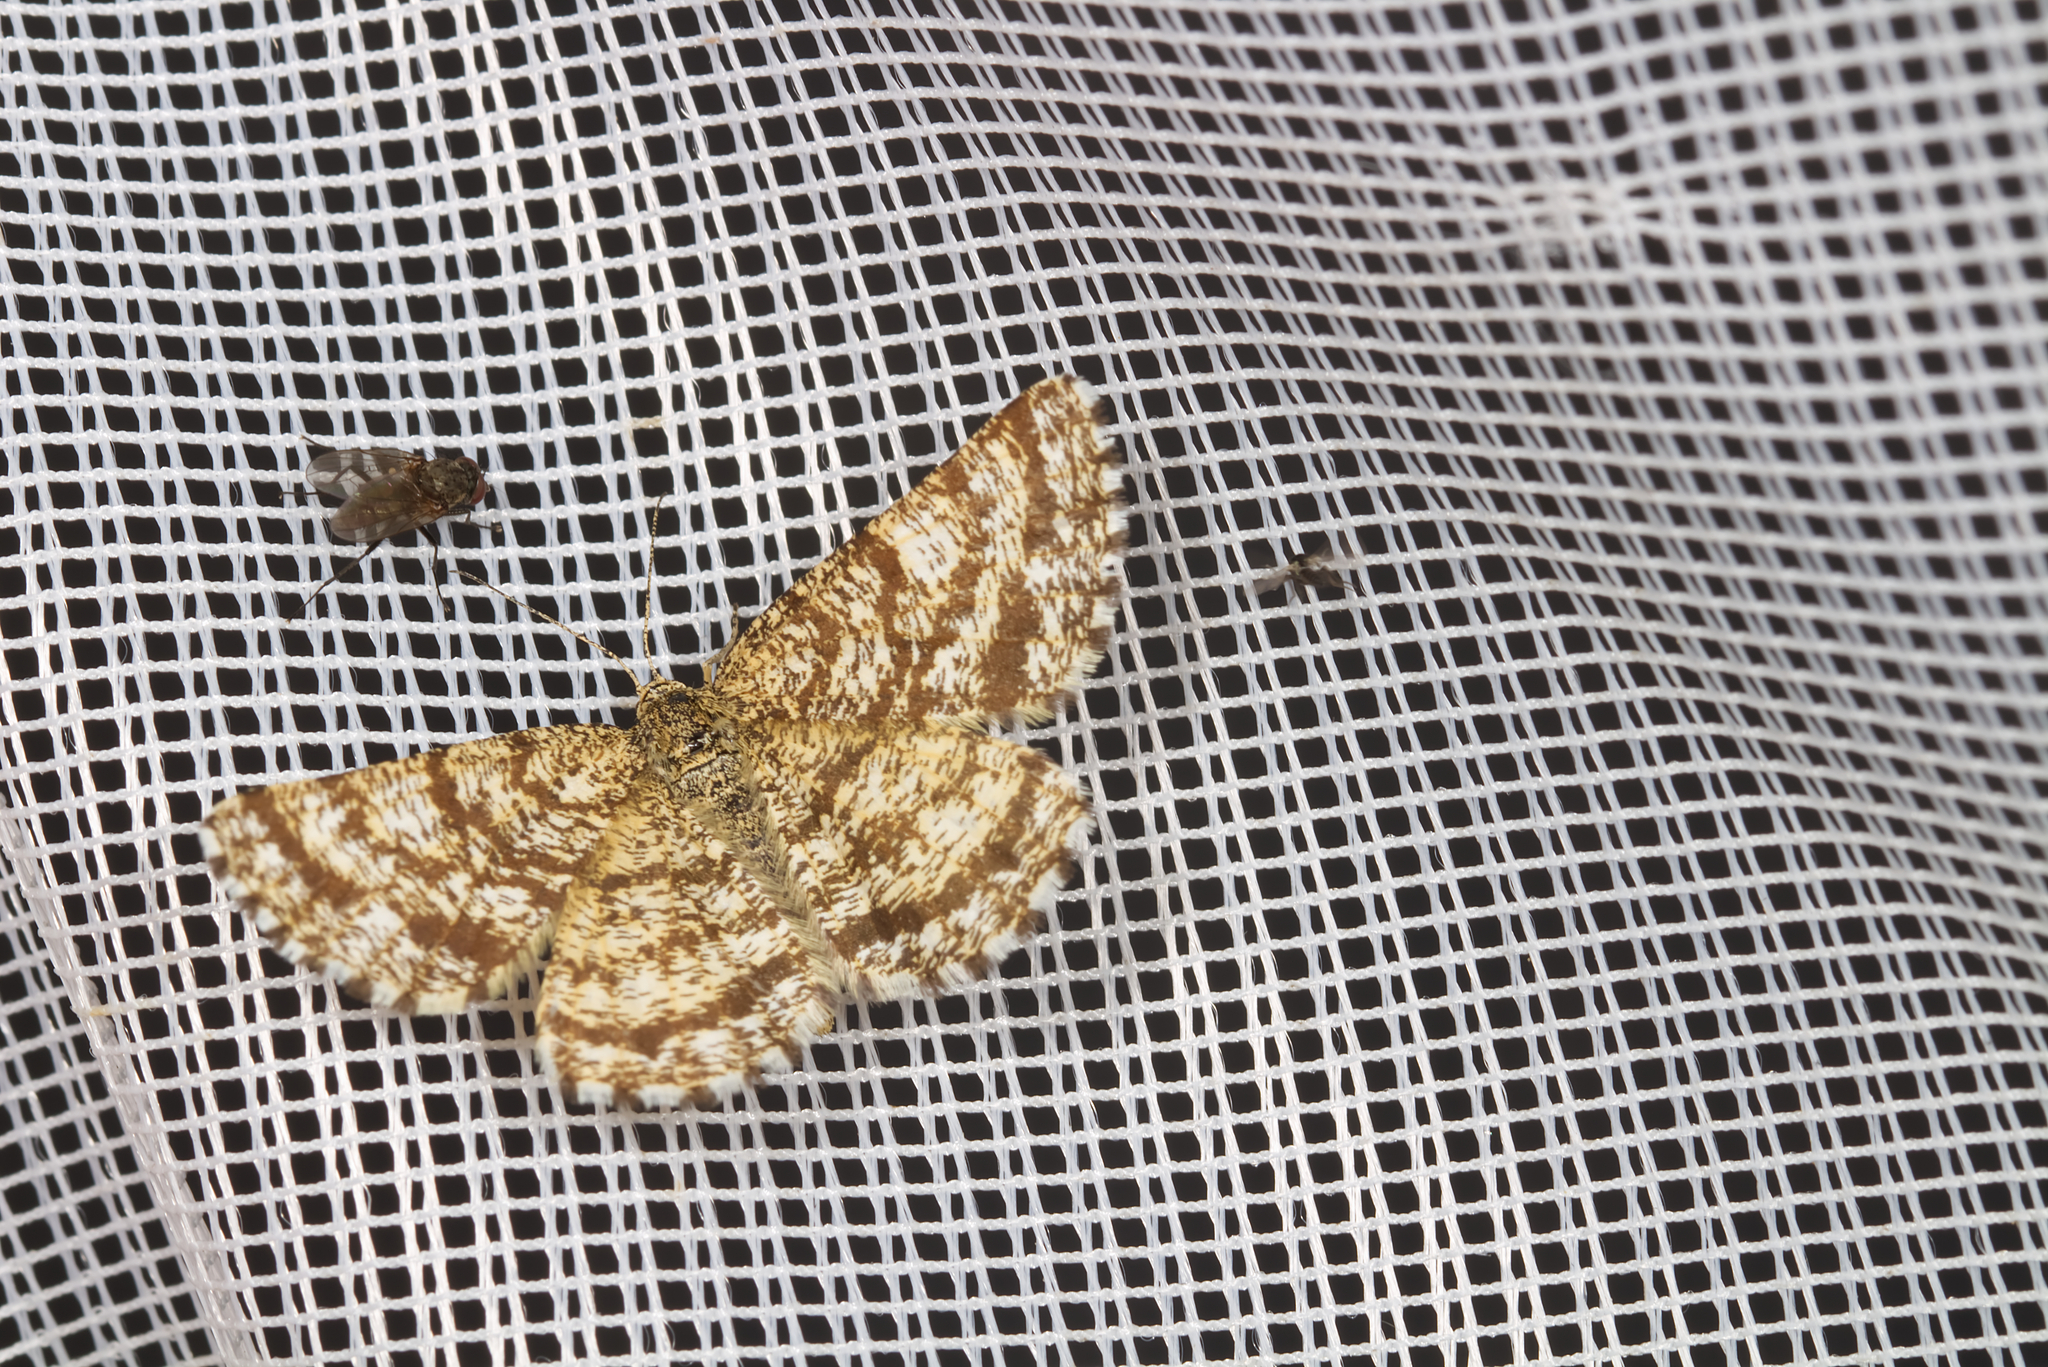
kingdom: Animalia
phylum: Arthropoda
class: Insecta
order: Lepidoptera
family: Geometridae
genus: Ematurga
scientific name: Ematurga atomaria
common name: Common heath
